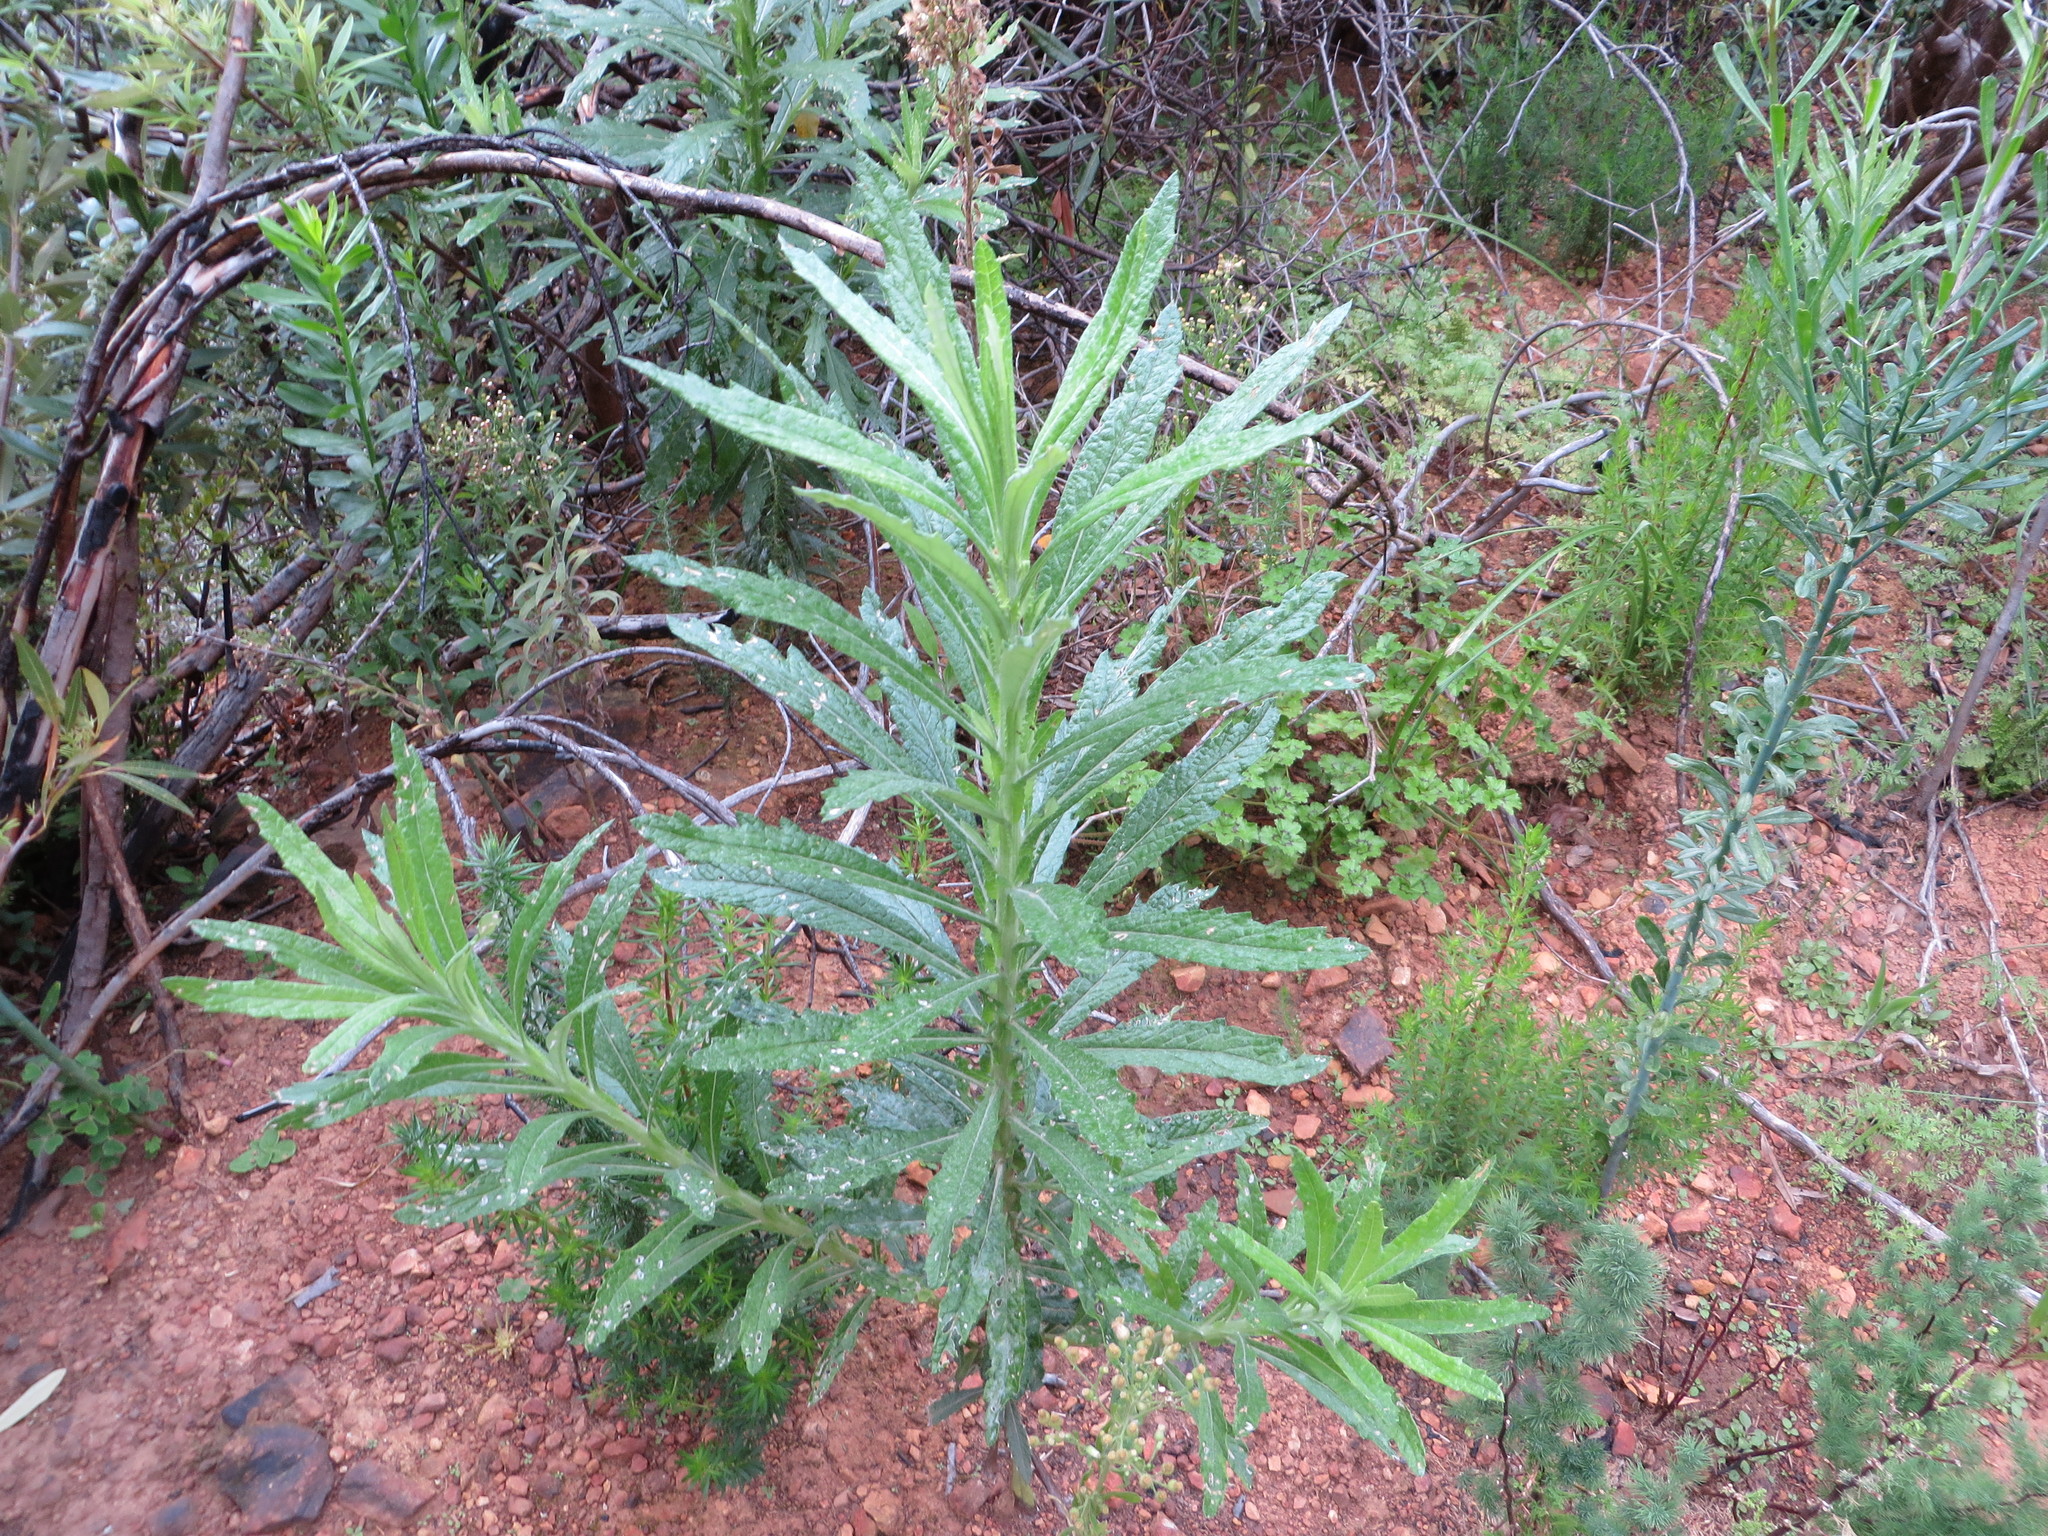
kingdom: Plantae
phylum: Tracheophyta
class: Magnoliopsida
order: Asterales
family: Asteraceae
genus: Senecio
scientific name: Senecio pterophorus
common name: Shoddy ragwort
